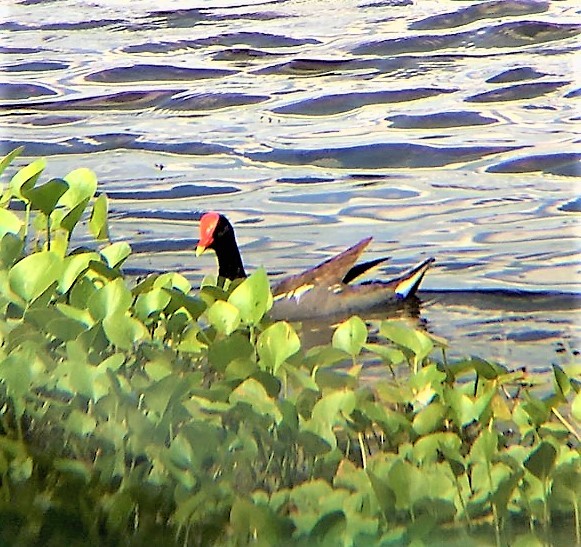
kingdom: Animalia
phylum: Chordata
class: Aves
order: Gruiformes
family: Rallidae
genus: Gallinula
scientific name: Gallinula chloropus
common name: Common moorhen
